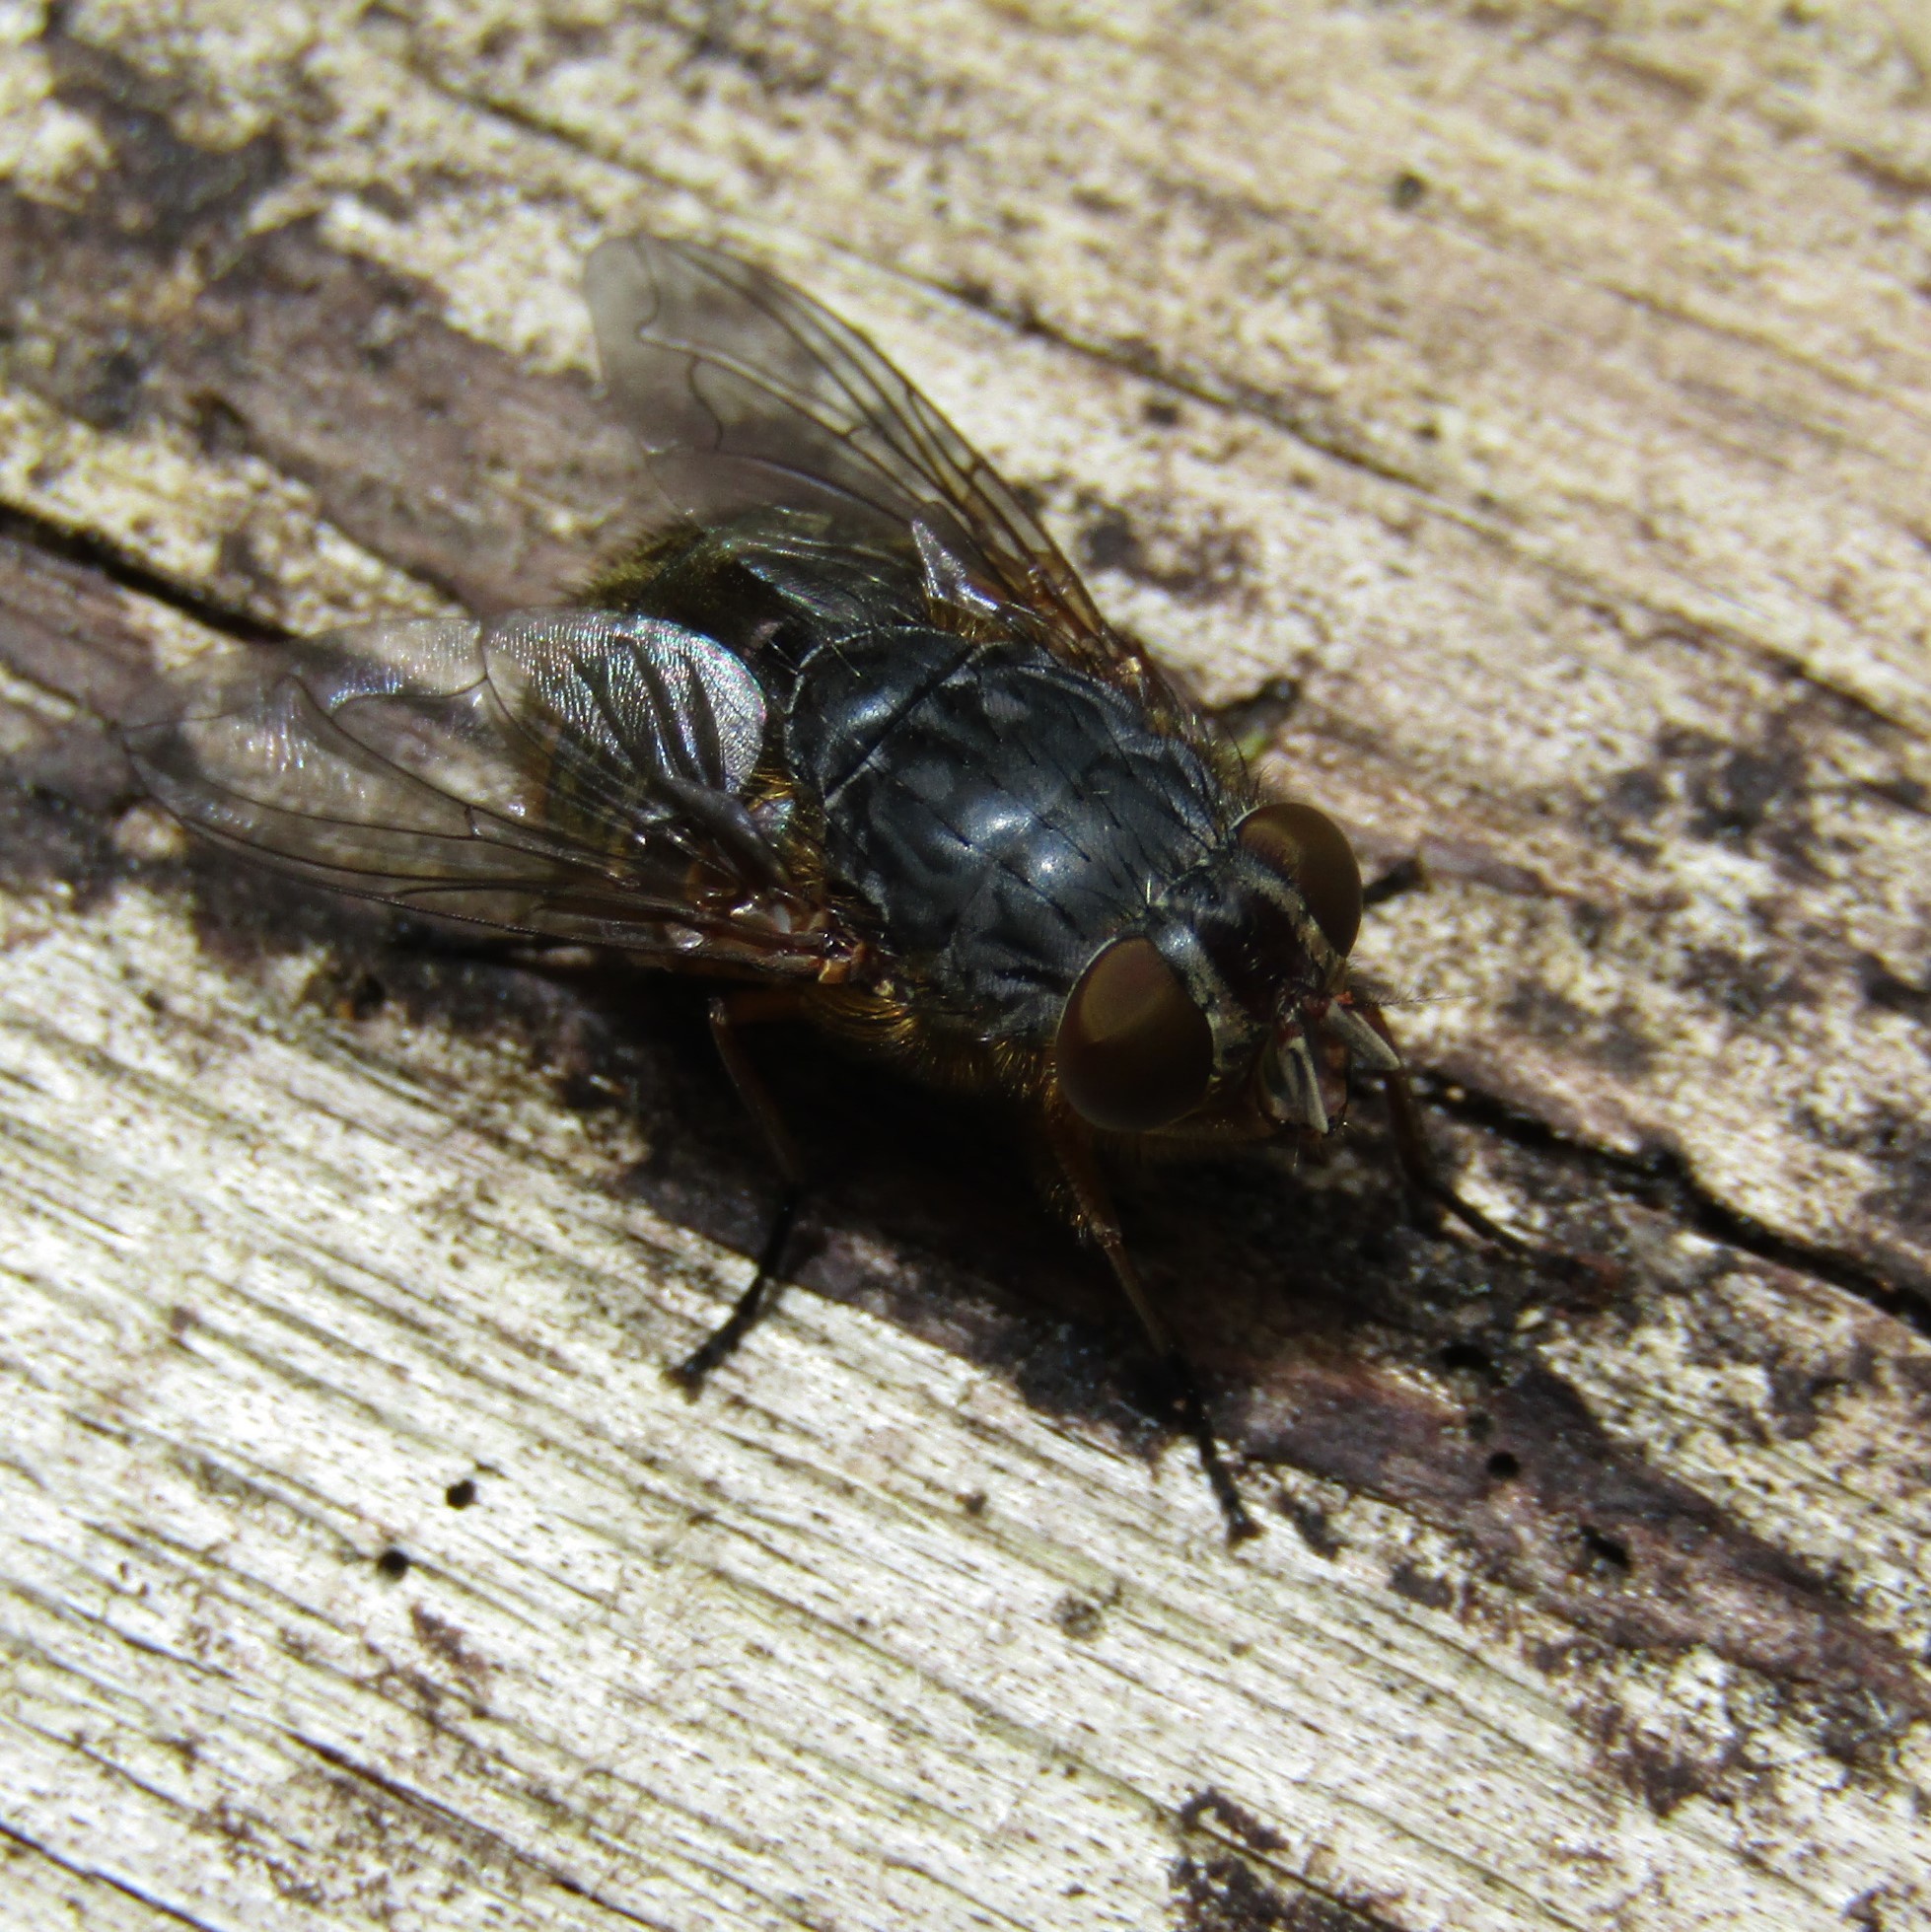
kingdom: Animalia
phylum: Arthropoda
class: Insecta
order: Diptera
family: Calliphoridae
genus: Calliphora
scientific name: Calliphora stygia
